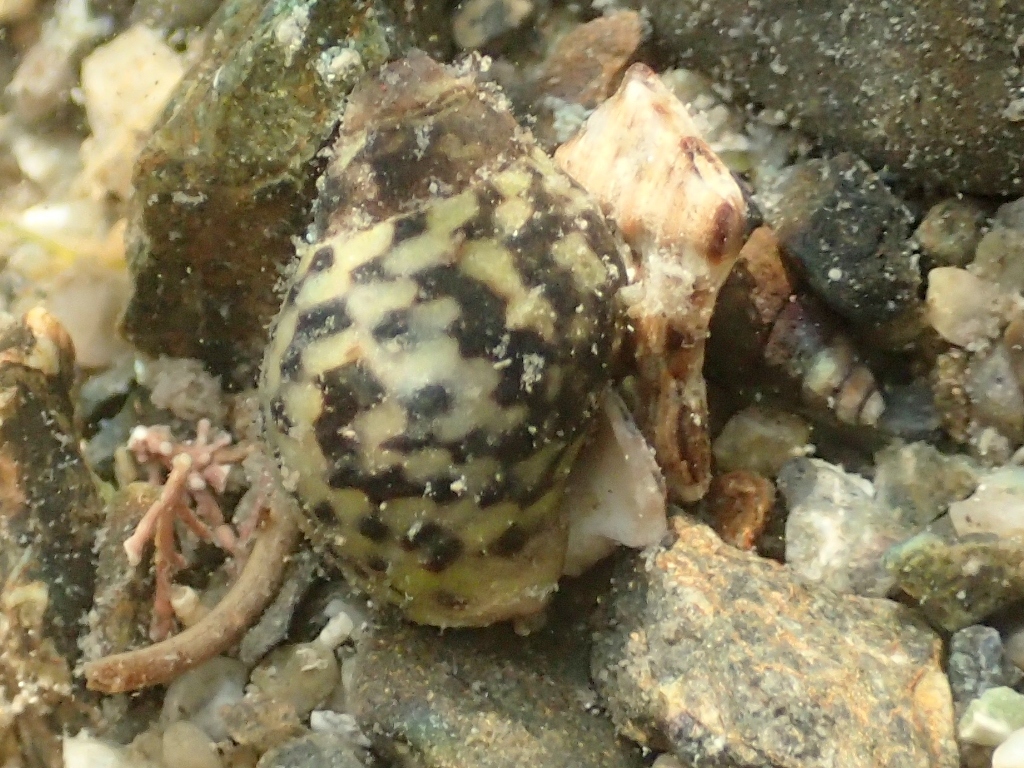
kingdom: Animalia
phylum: Mollusca
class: Gastropoda
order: Neogastropoda
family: Cominellidae
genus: Cominella
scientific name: Cominella maculosa
